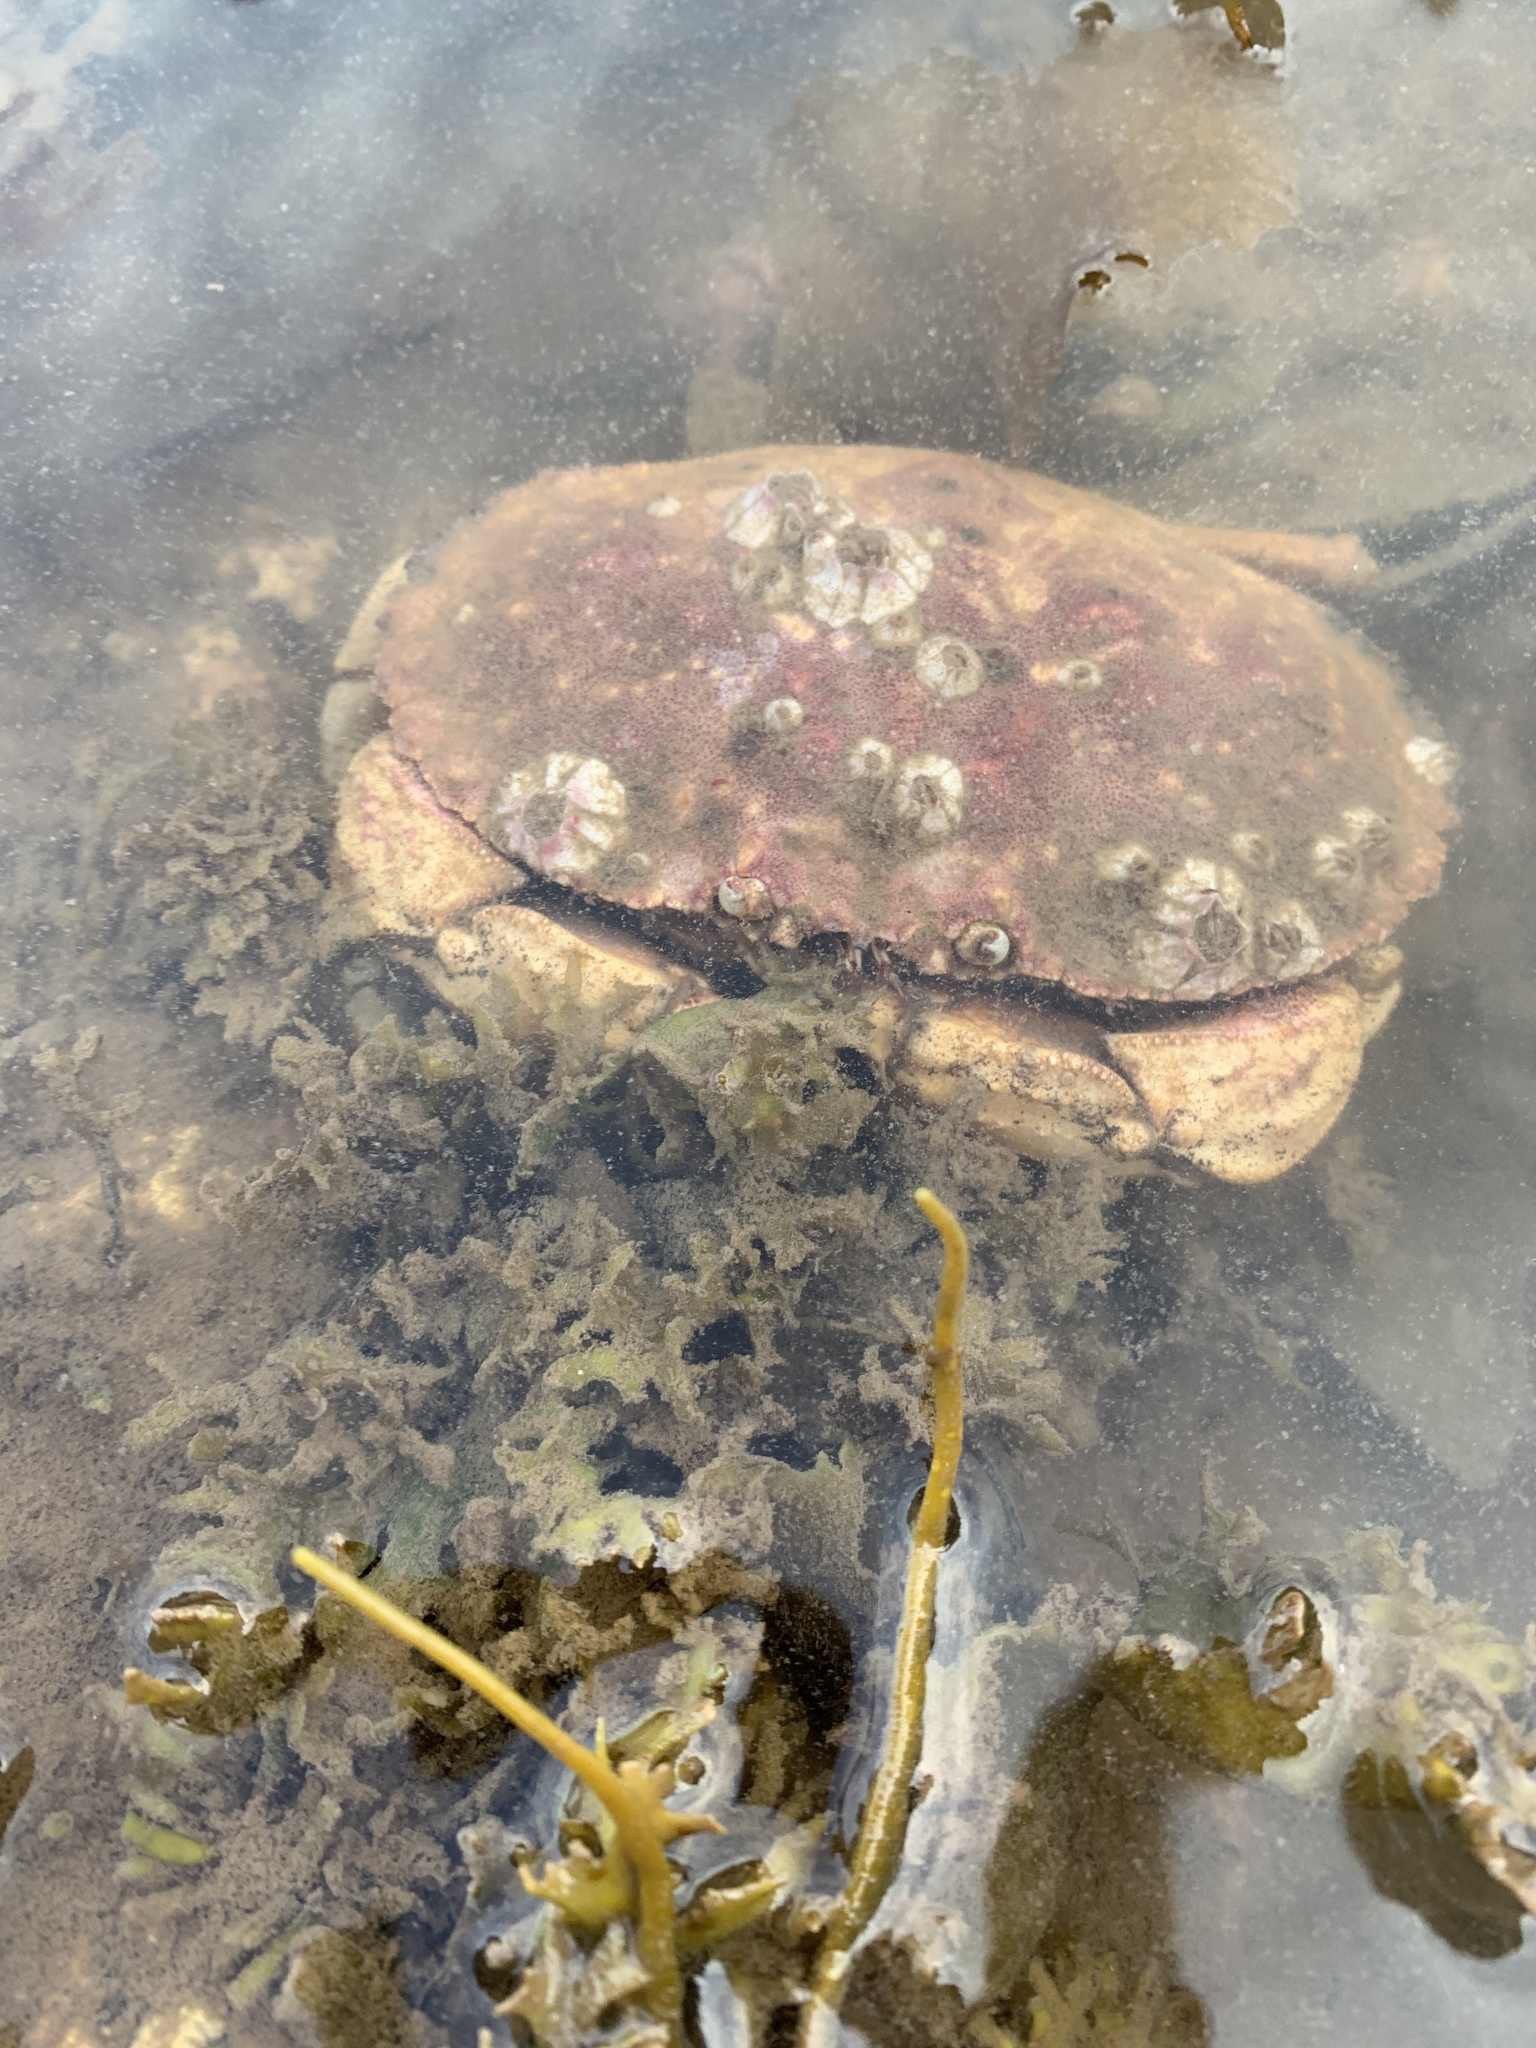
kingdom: Animalia
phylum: Arthropoda
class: Malacostraca
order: Decapoda
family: Cancridae
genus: Cancer
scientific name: Cancer borealis
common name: Jonah crab
